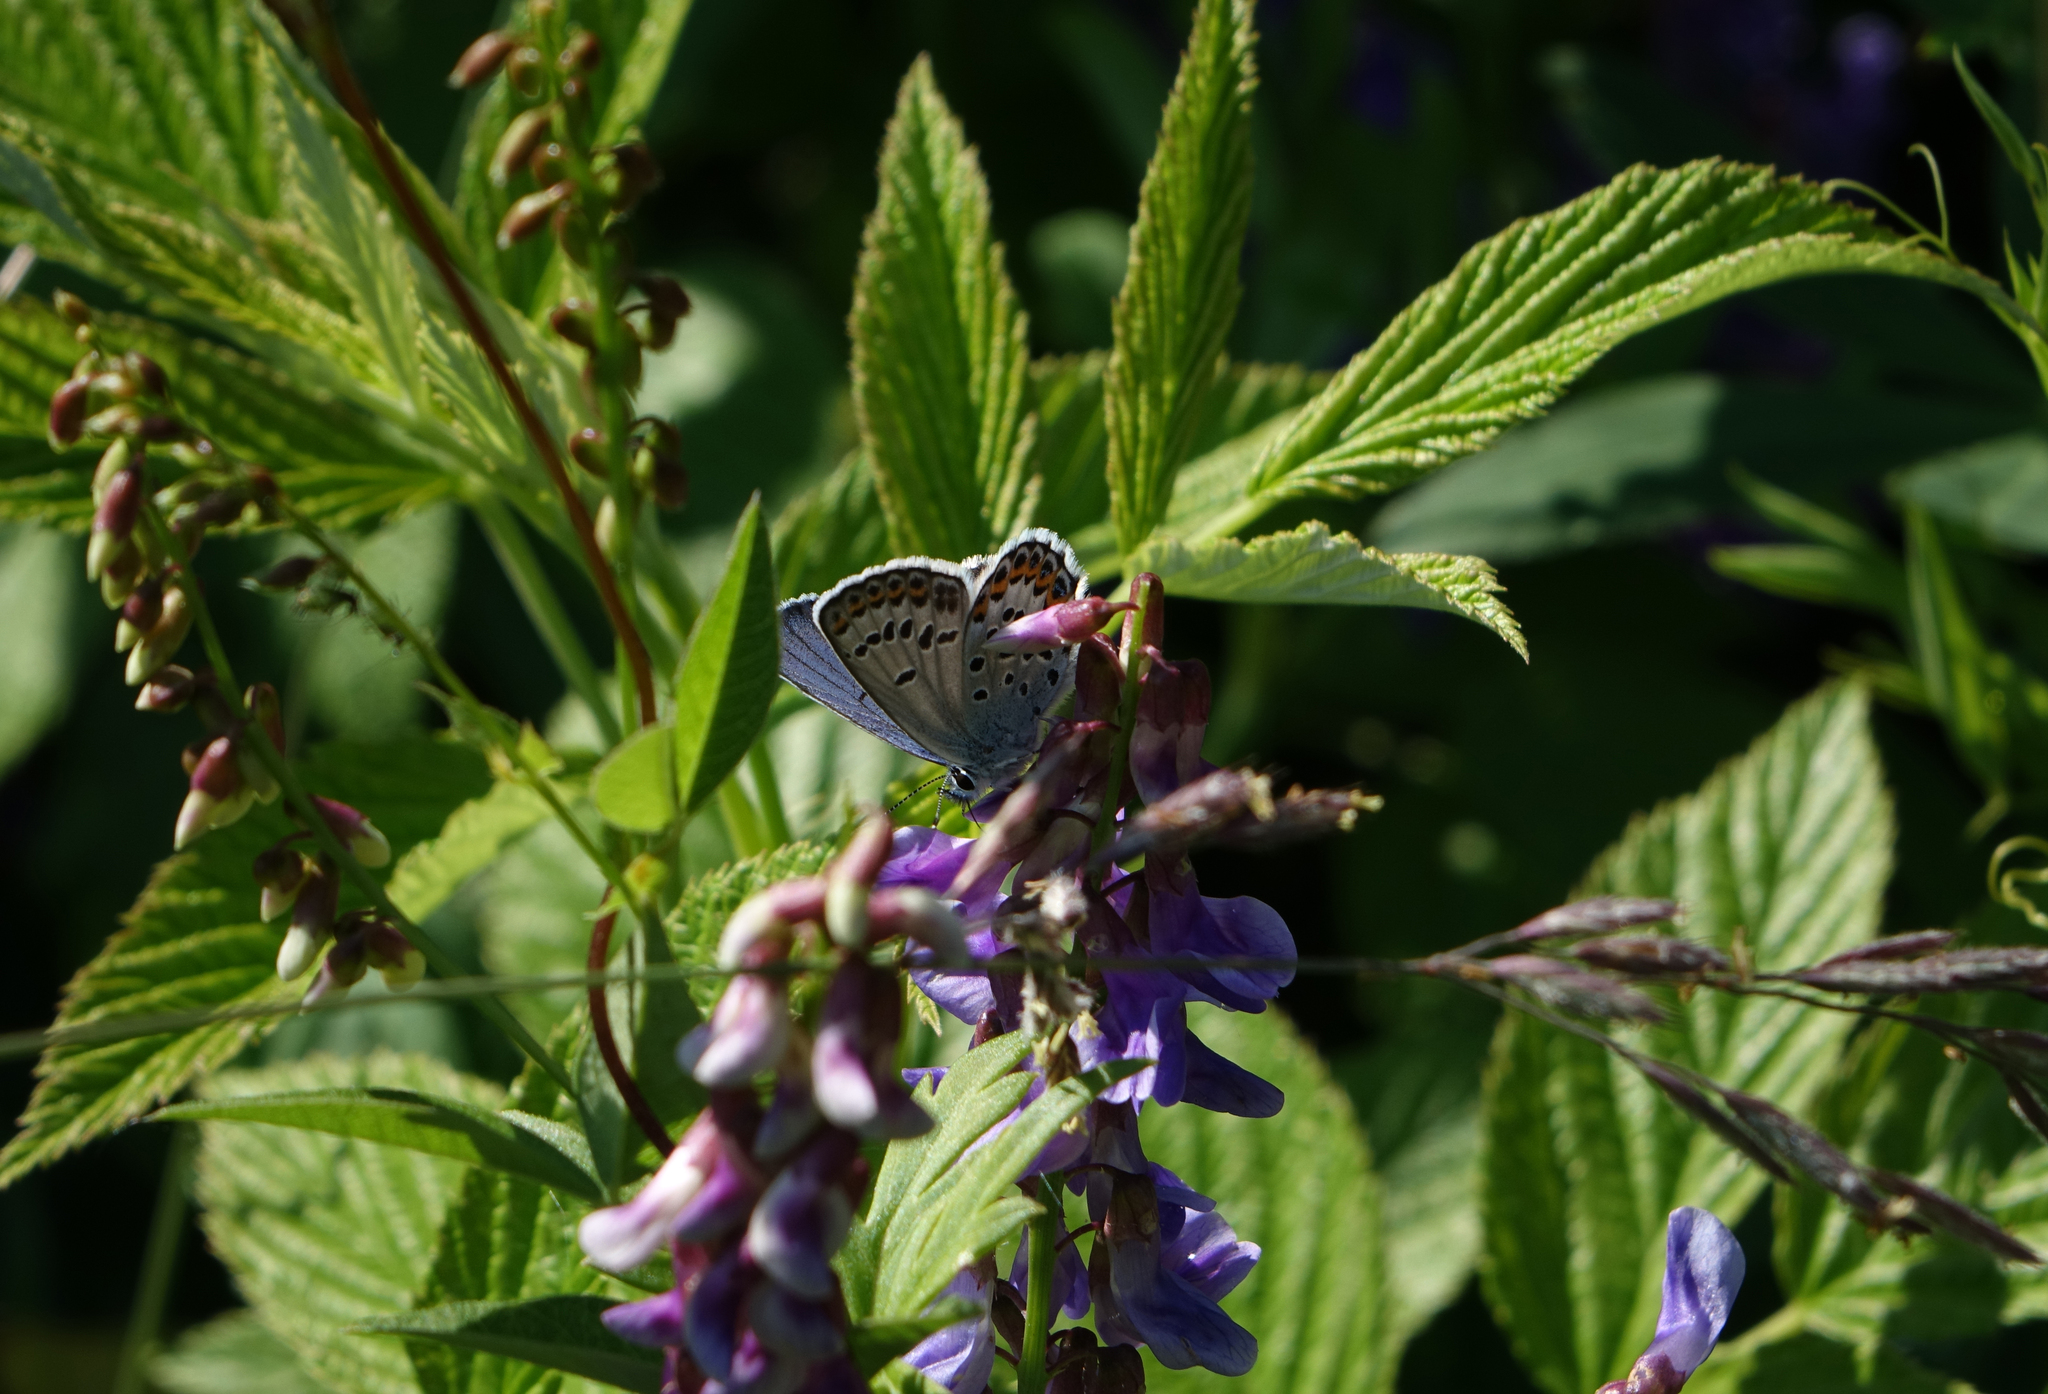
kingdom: Plantae
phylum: Tracheophyta
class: Magnoliopsida
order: Fabales
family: Fabaceae
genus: Vicia
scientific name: Vicia unijuga
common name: Two-leaf vetch
